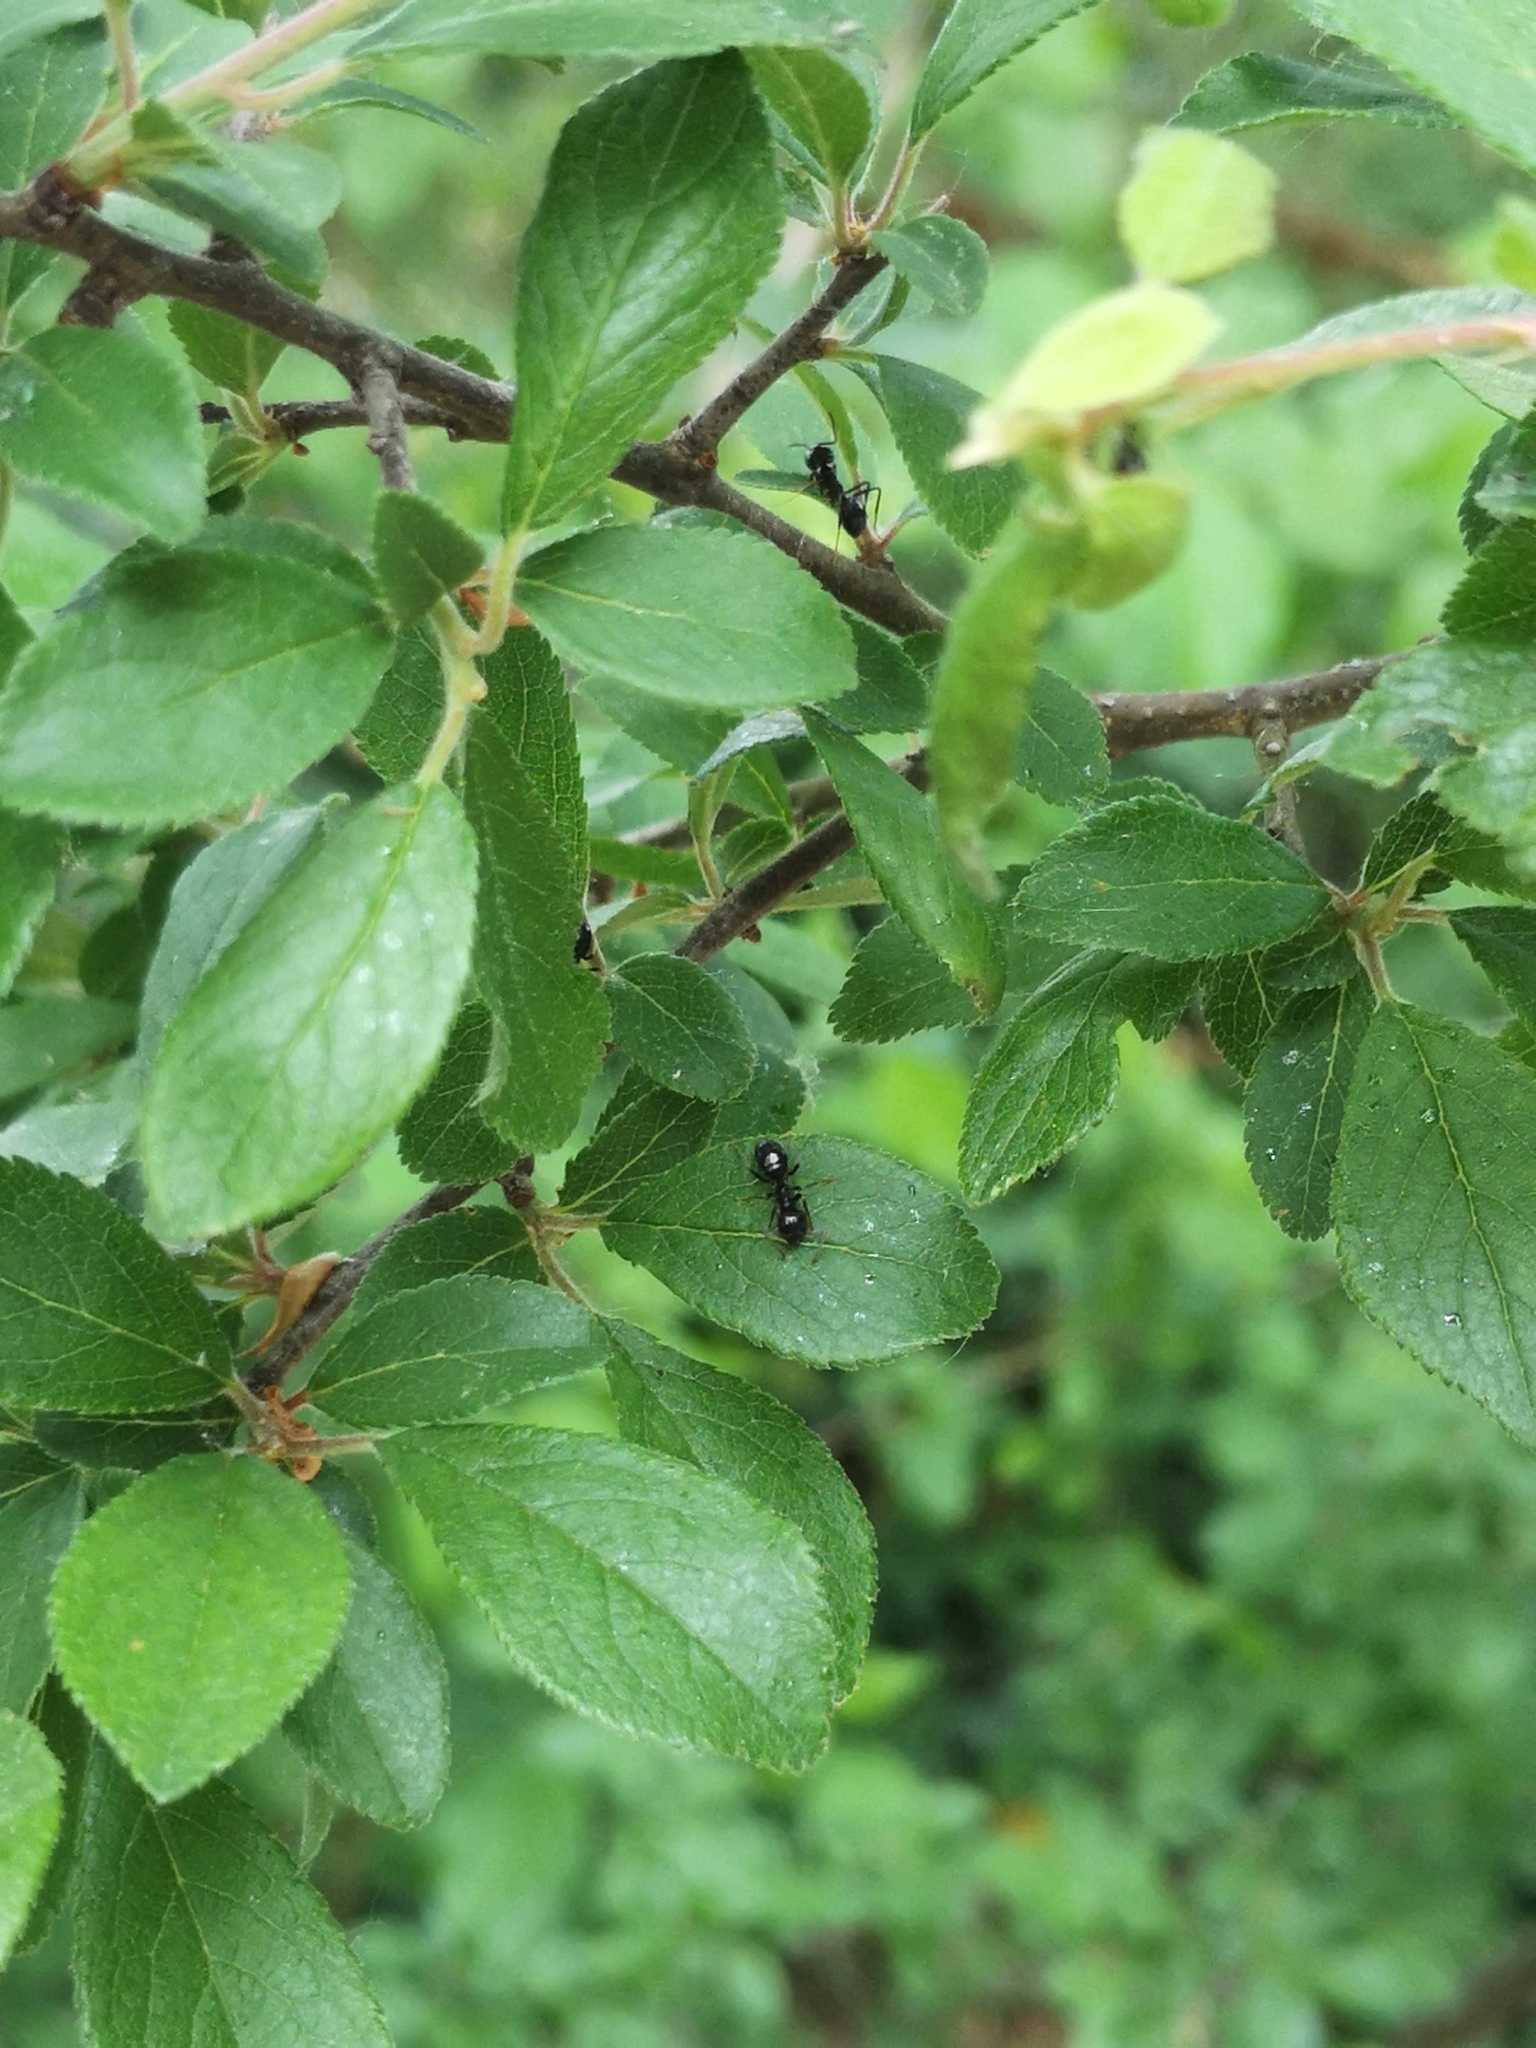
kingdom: Animalia
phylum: Arthropoda
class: Insecta
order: Hymenoptera
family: Formicidae
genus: Lasius
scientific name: Lasius fuliginosus
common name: Jet ant
